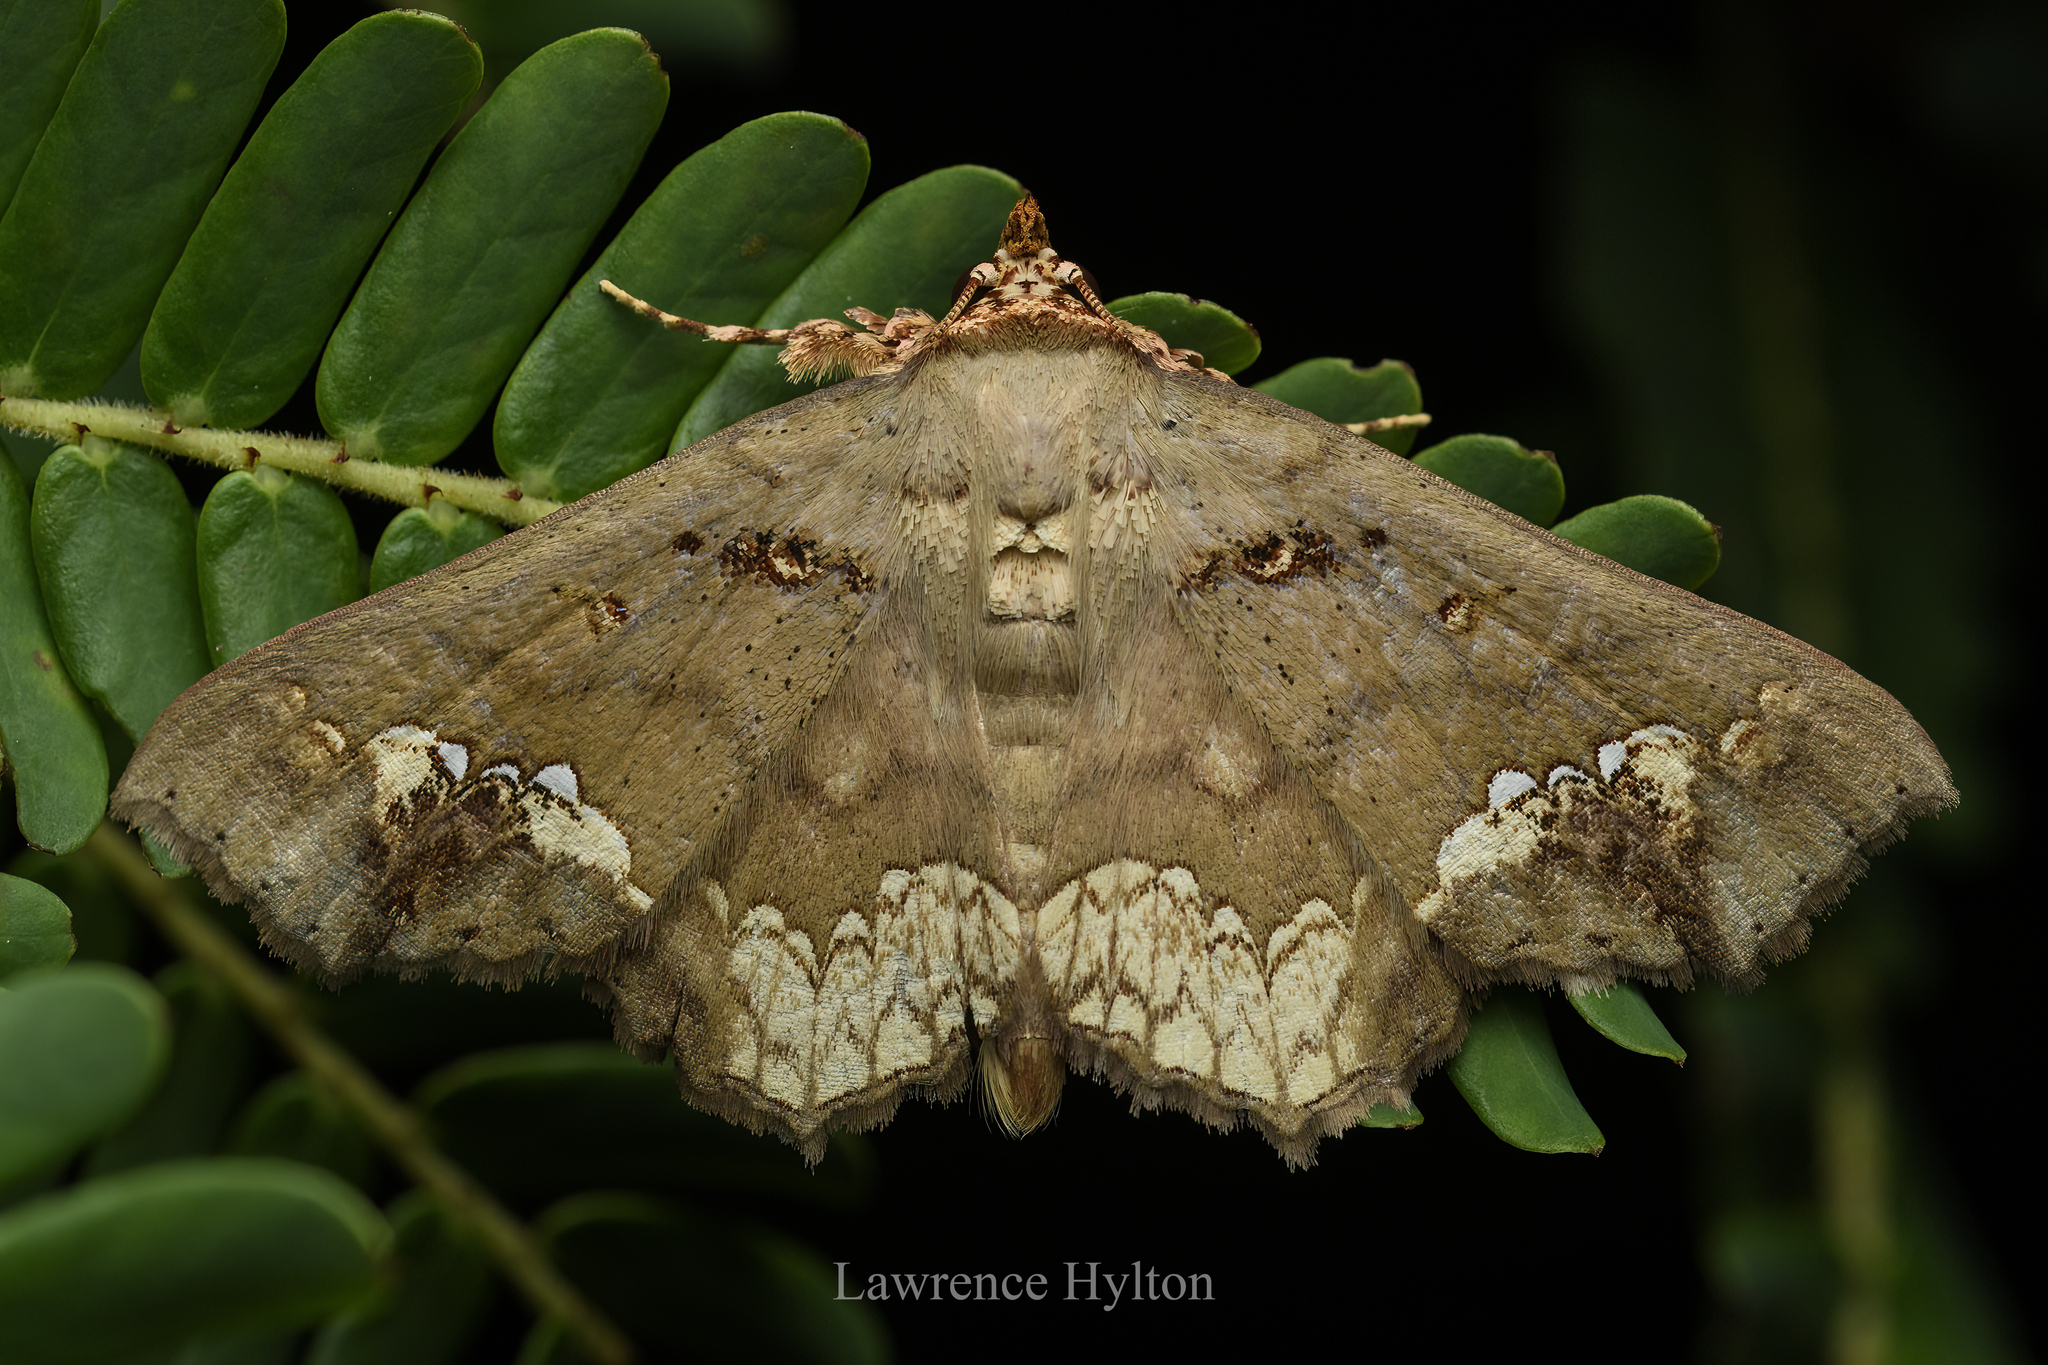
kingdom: Animalia
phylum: Arthropoda
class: Insecta
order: Lepidoptera
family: Erebidae
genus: Lopharthrum
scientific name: Lopharthrum comprimens
